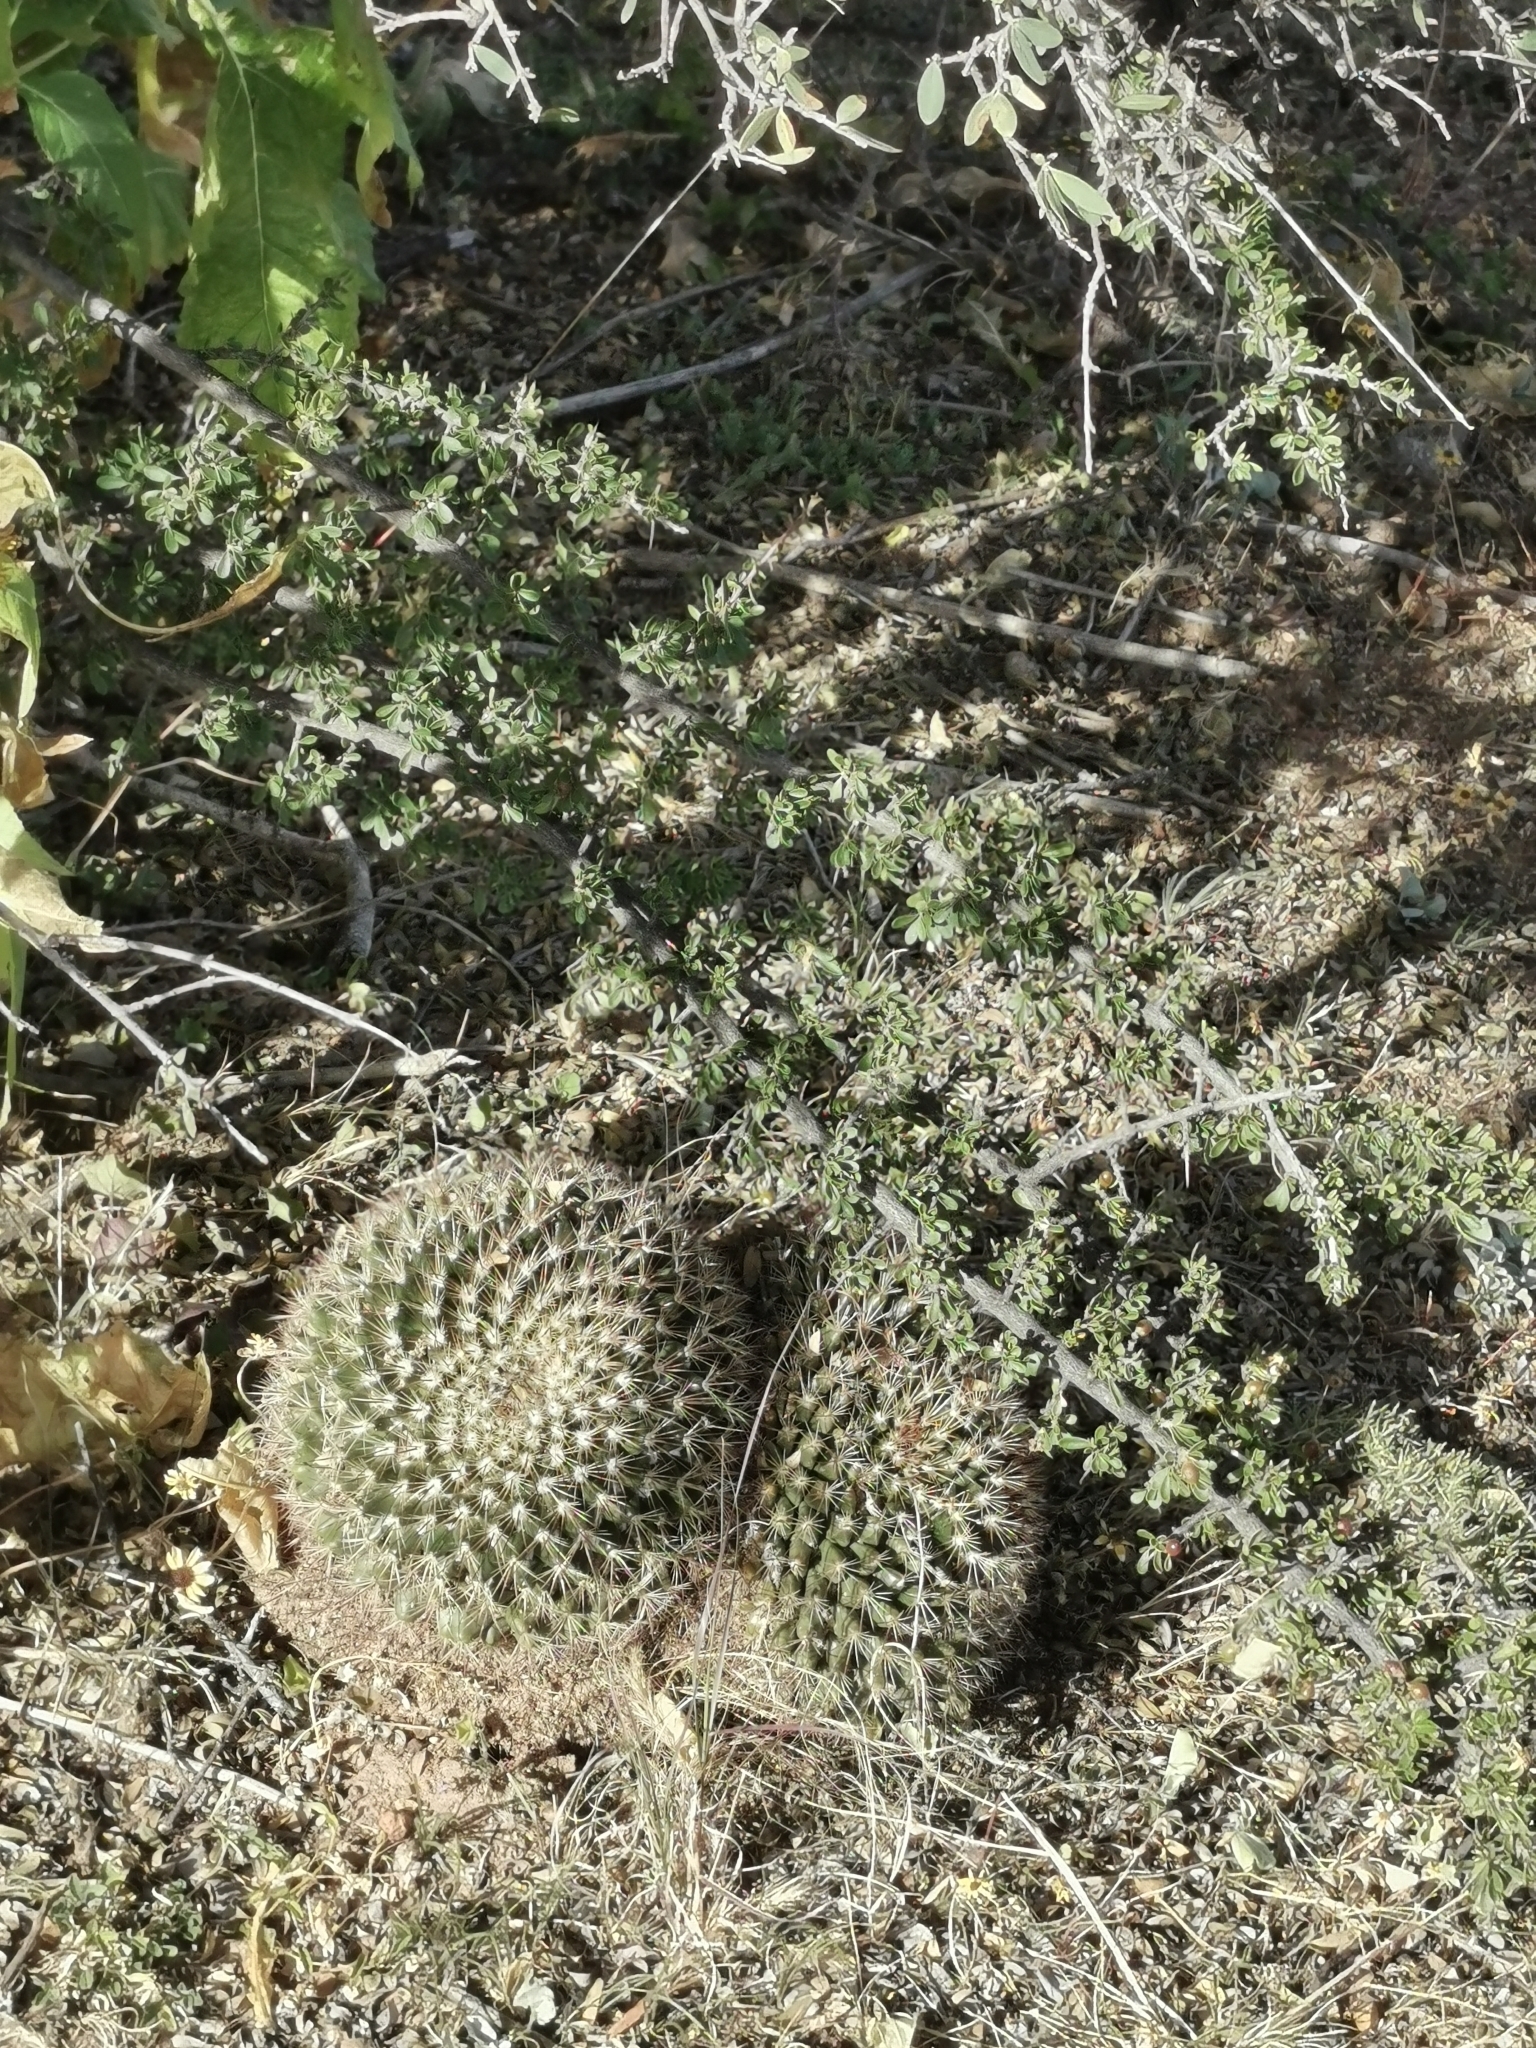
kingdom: Plantae
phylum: Tracheophyta
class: Magnoliopsida
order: Caryophyllales
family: Cactaceae
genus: Mammillaria
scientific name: Mammillaria heyderi
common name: Little nipple cactus
